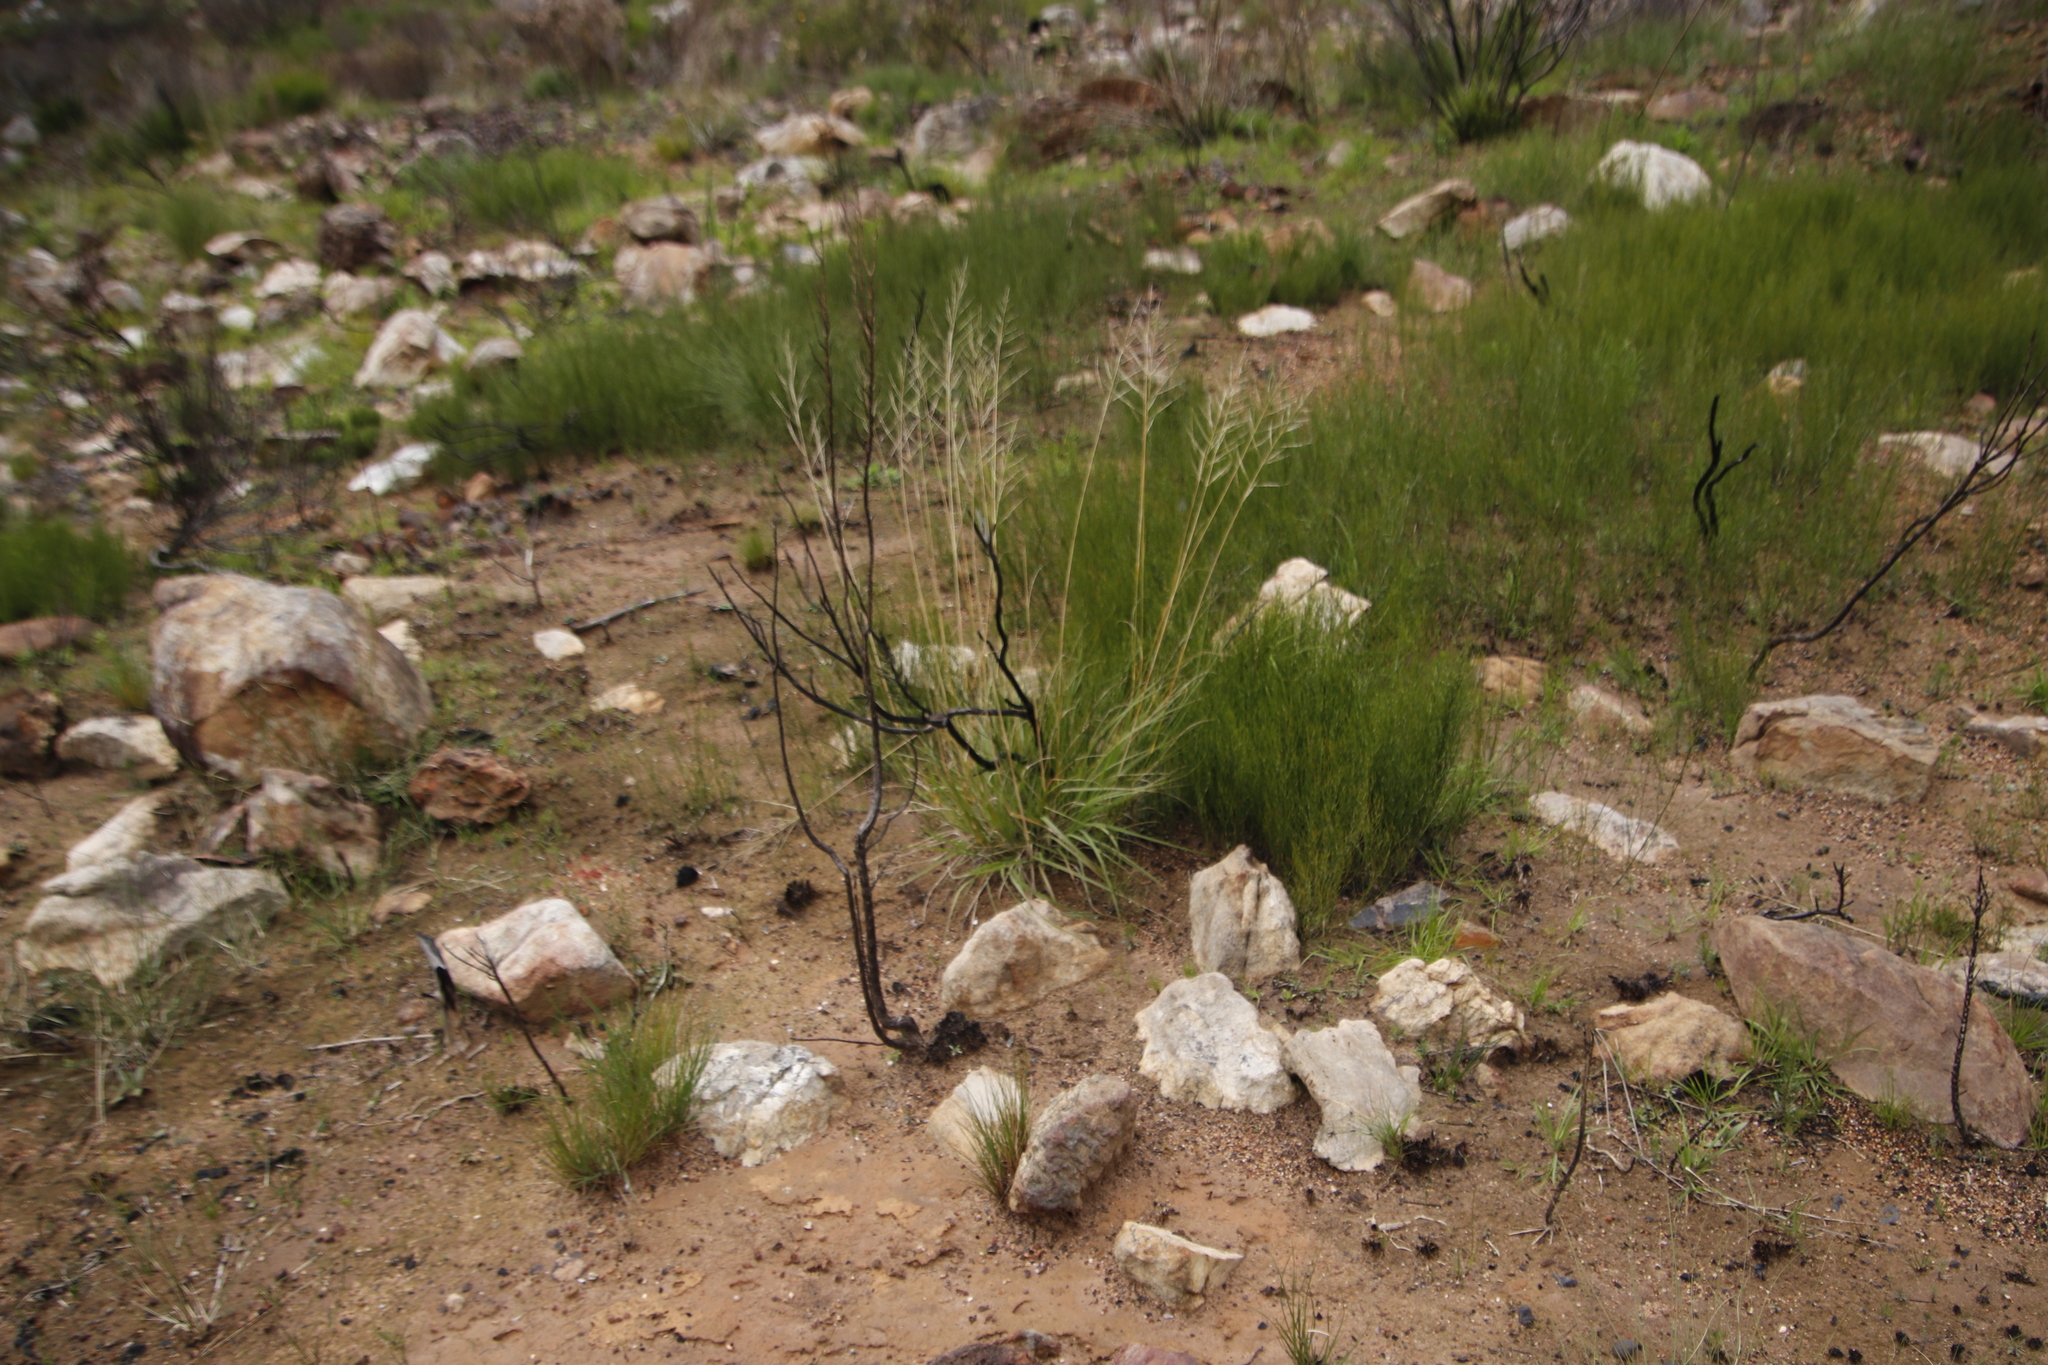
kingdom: Plantae
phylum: Tracheophyta
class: Liliopsida
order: Poales
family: Poaceae
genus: Eragrostis
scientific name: Eragrostis curvula
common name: African love-grass
